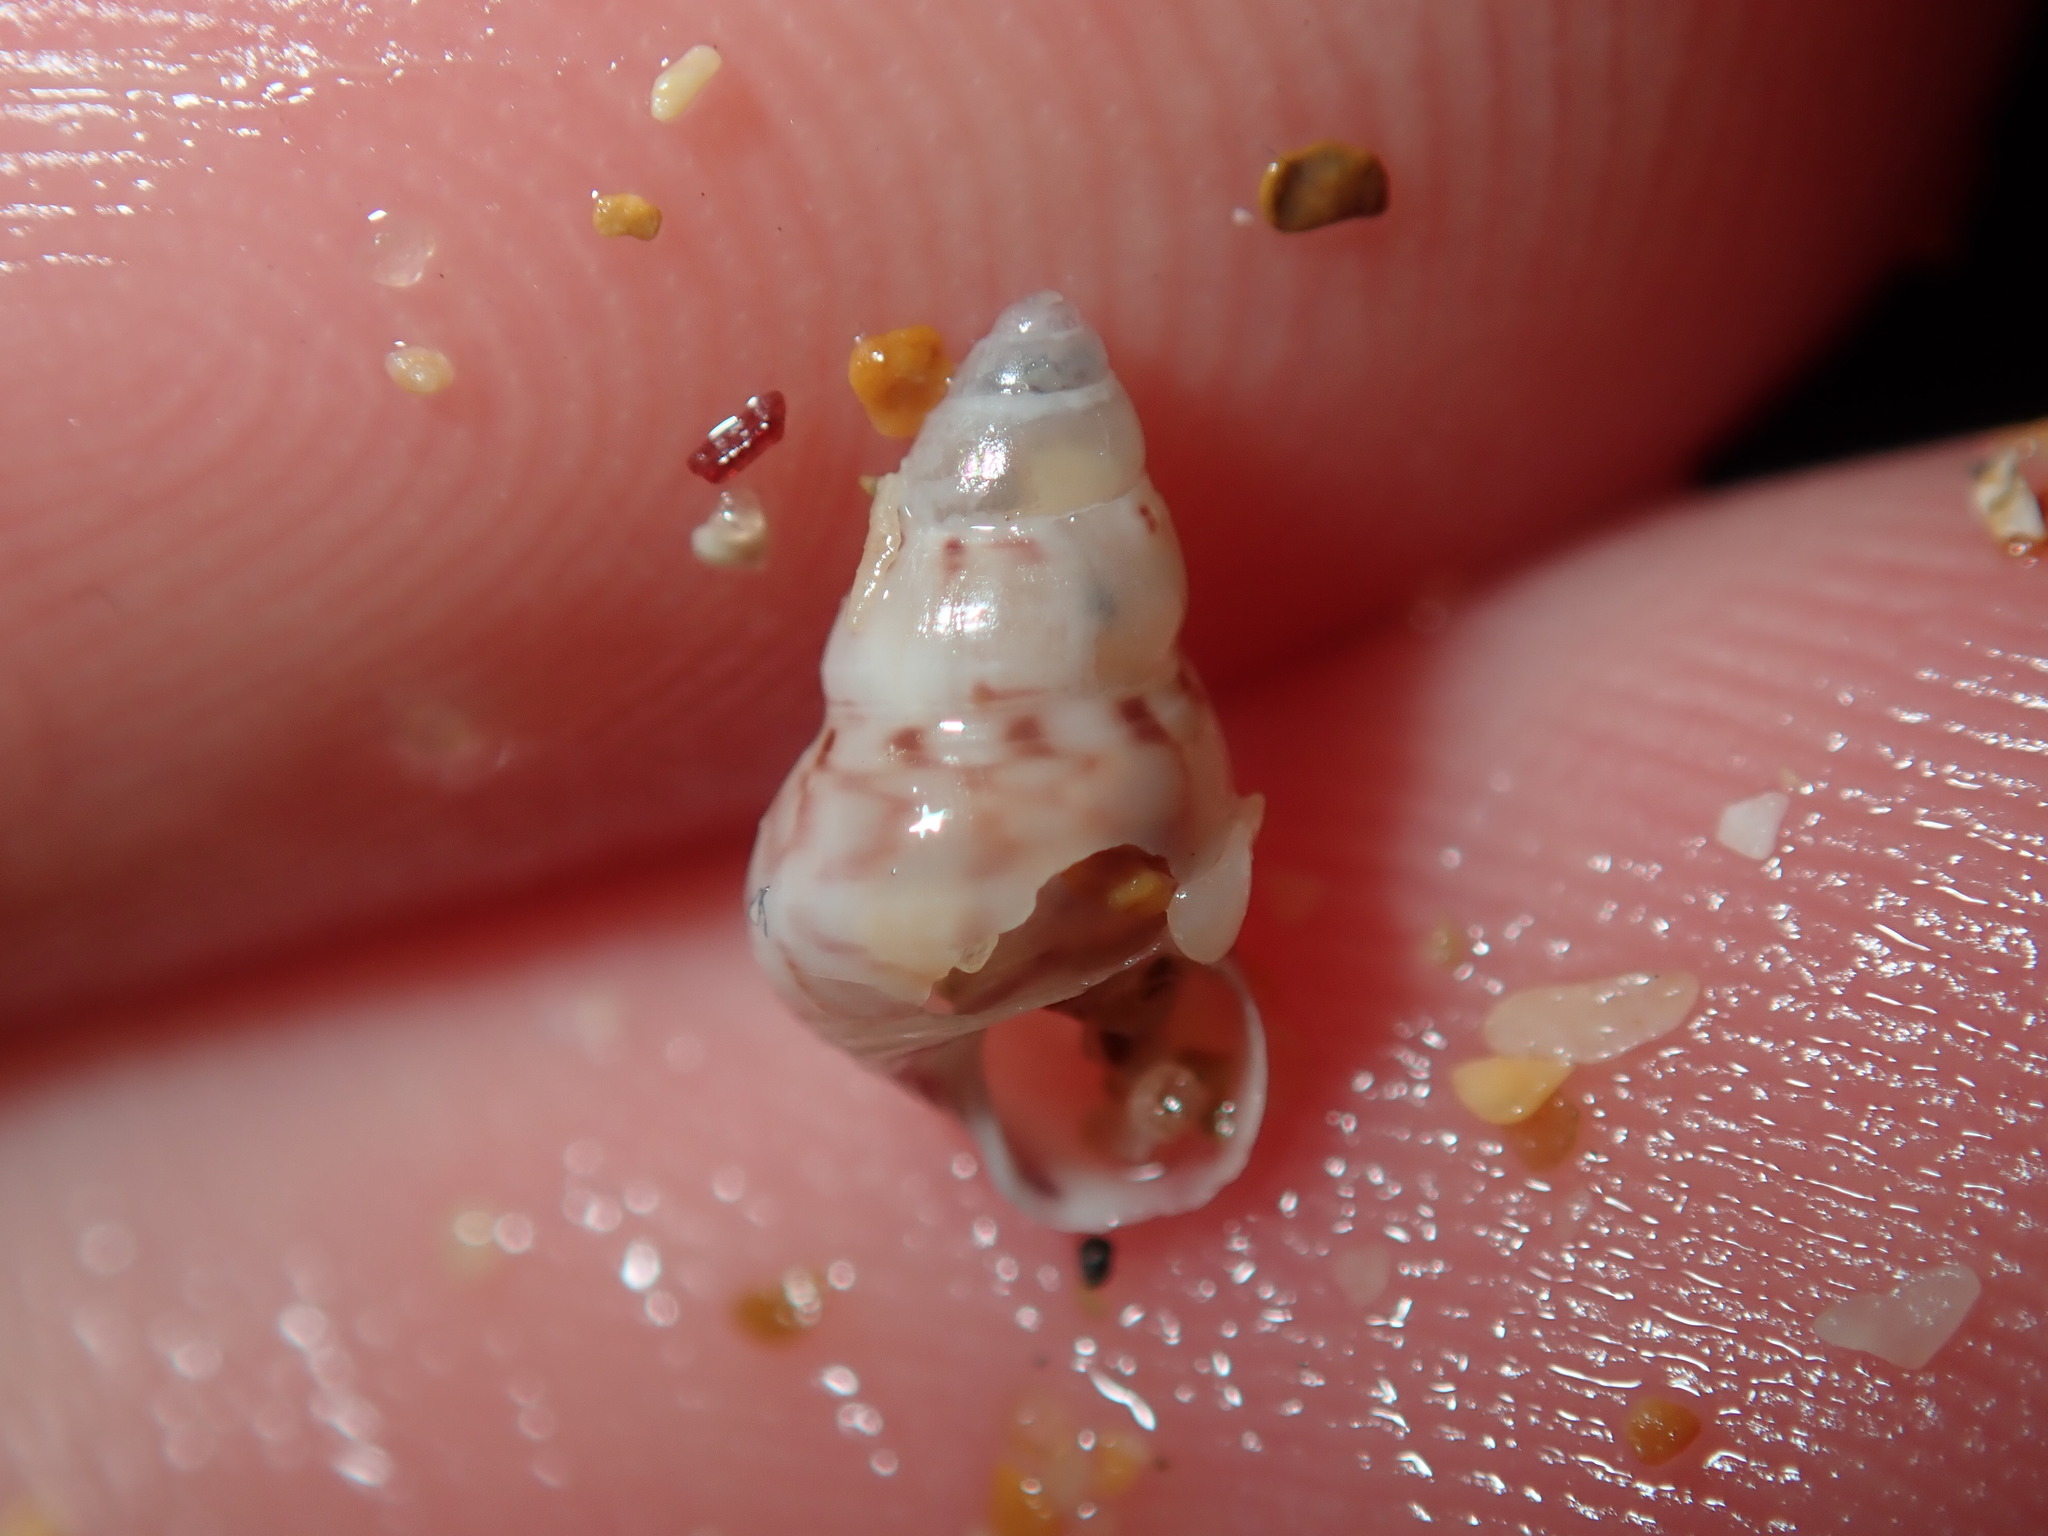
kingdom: Animalia
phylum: Mollusca
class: Gastropoda
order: Trochida
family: Trochidae
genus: Leiopyrga
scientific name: Leiopyrga lineolaris
